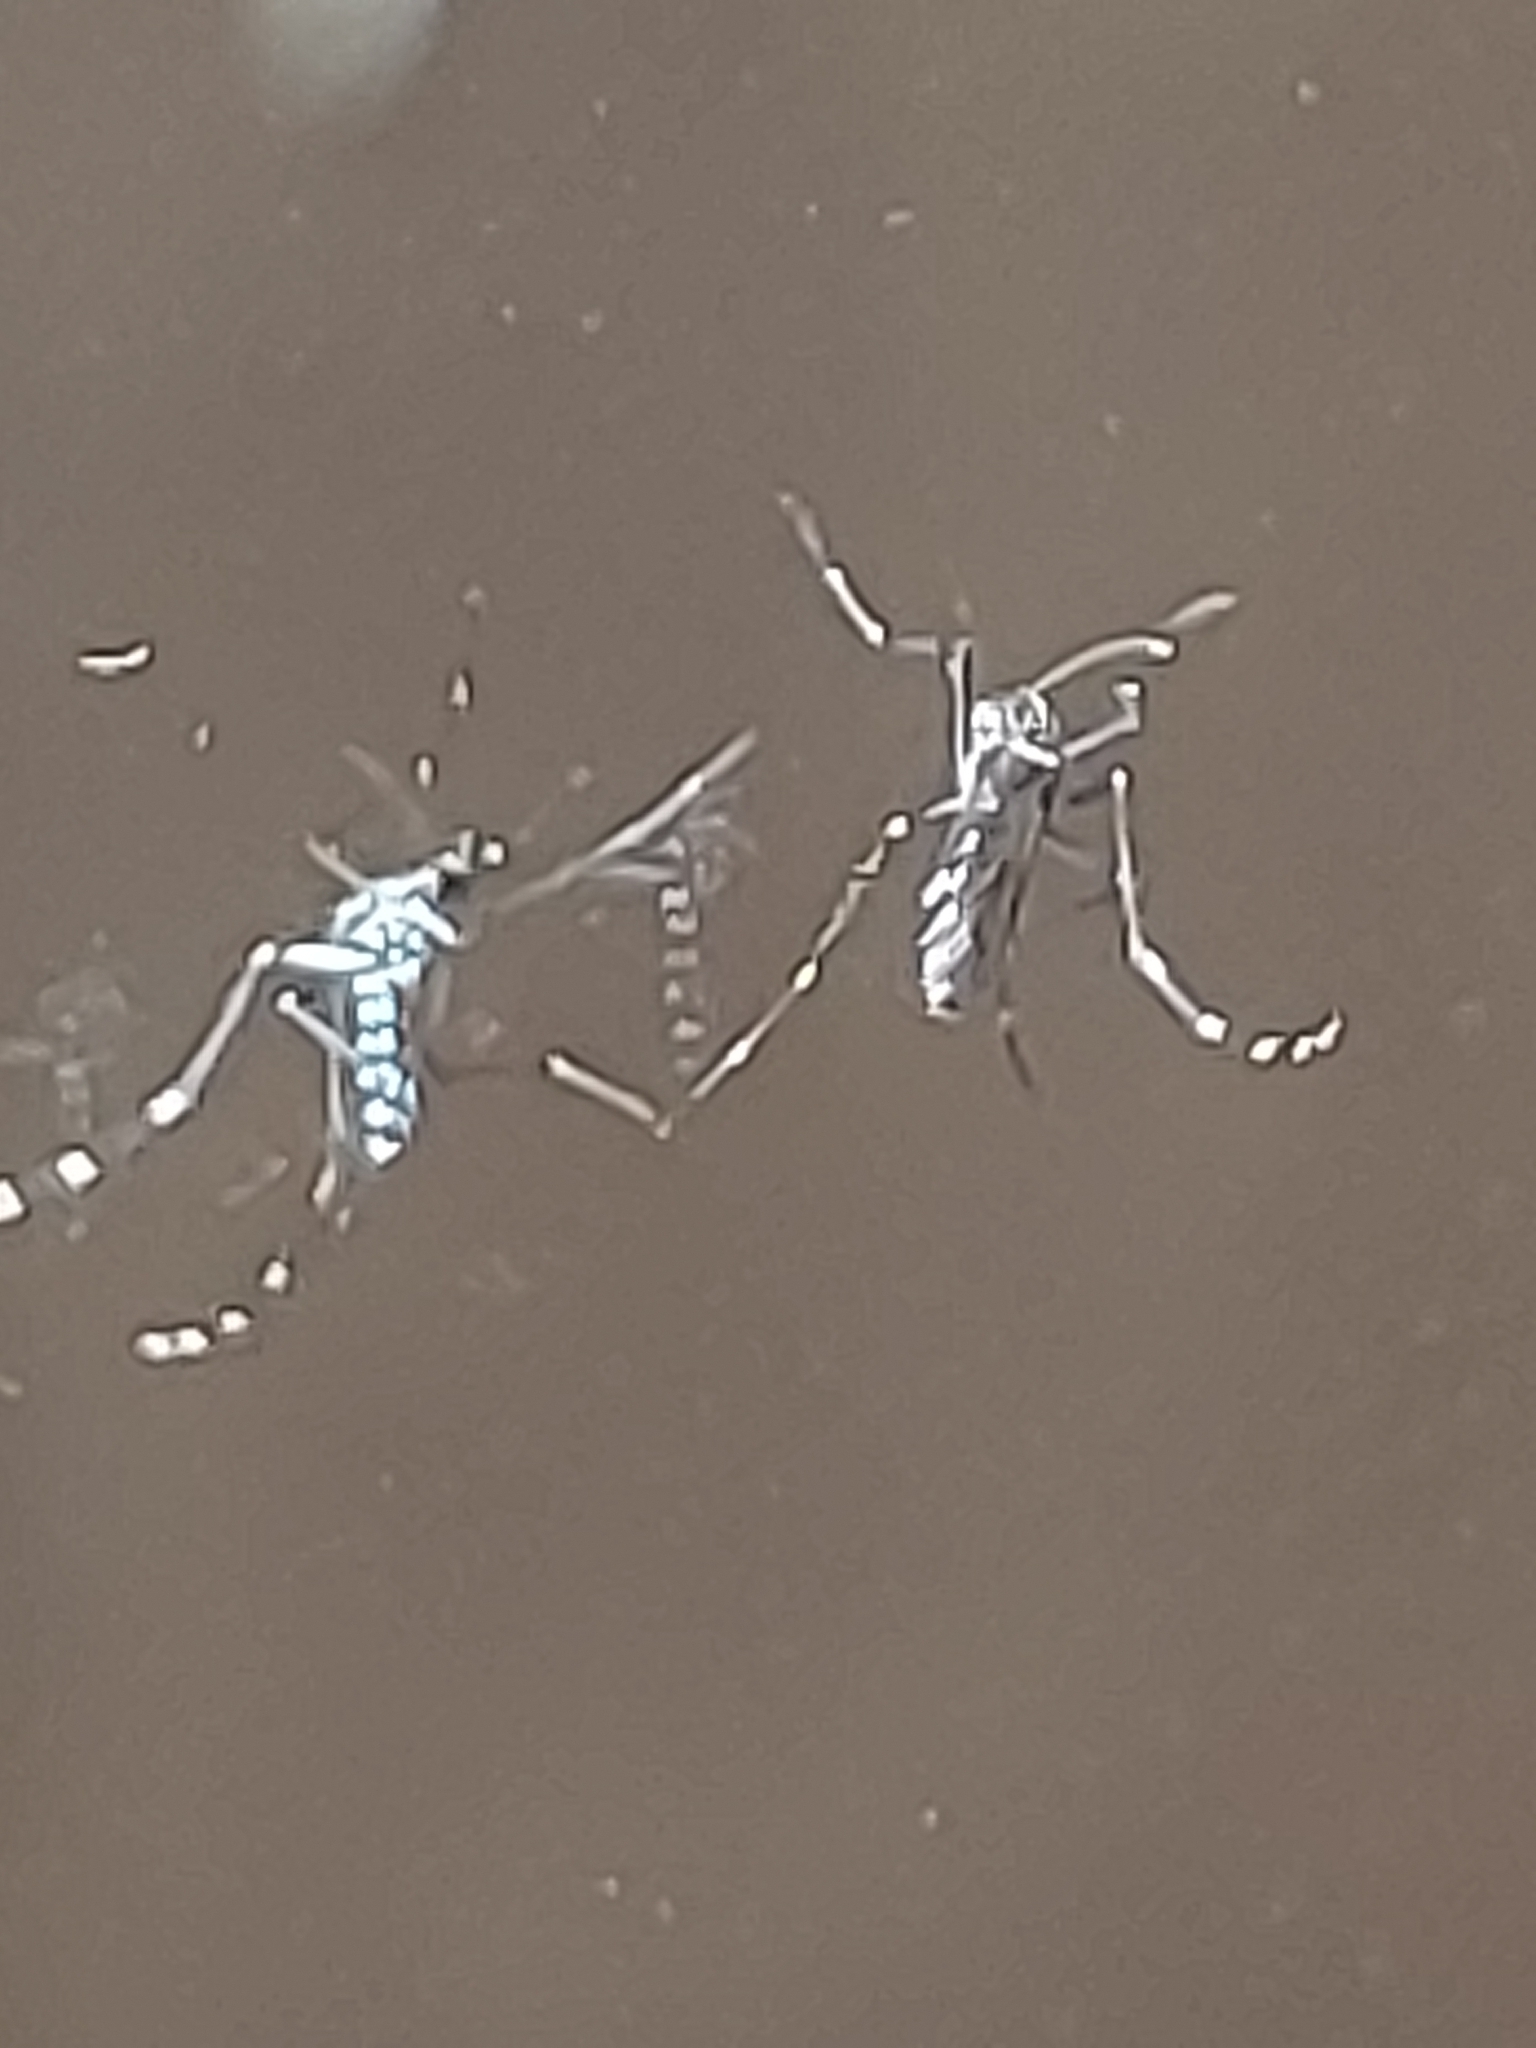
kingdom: Animalia
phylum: Arthropoda
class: Insecta
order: Diptera
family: Culicidae
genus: Aedes
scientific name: Aedes albopictus
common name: Tiger mosquito
